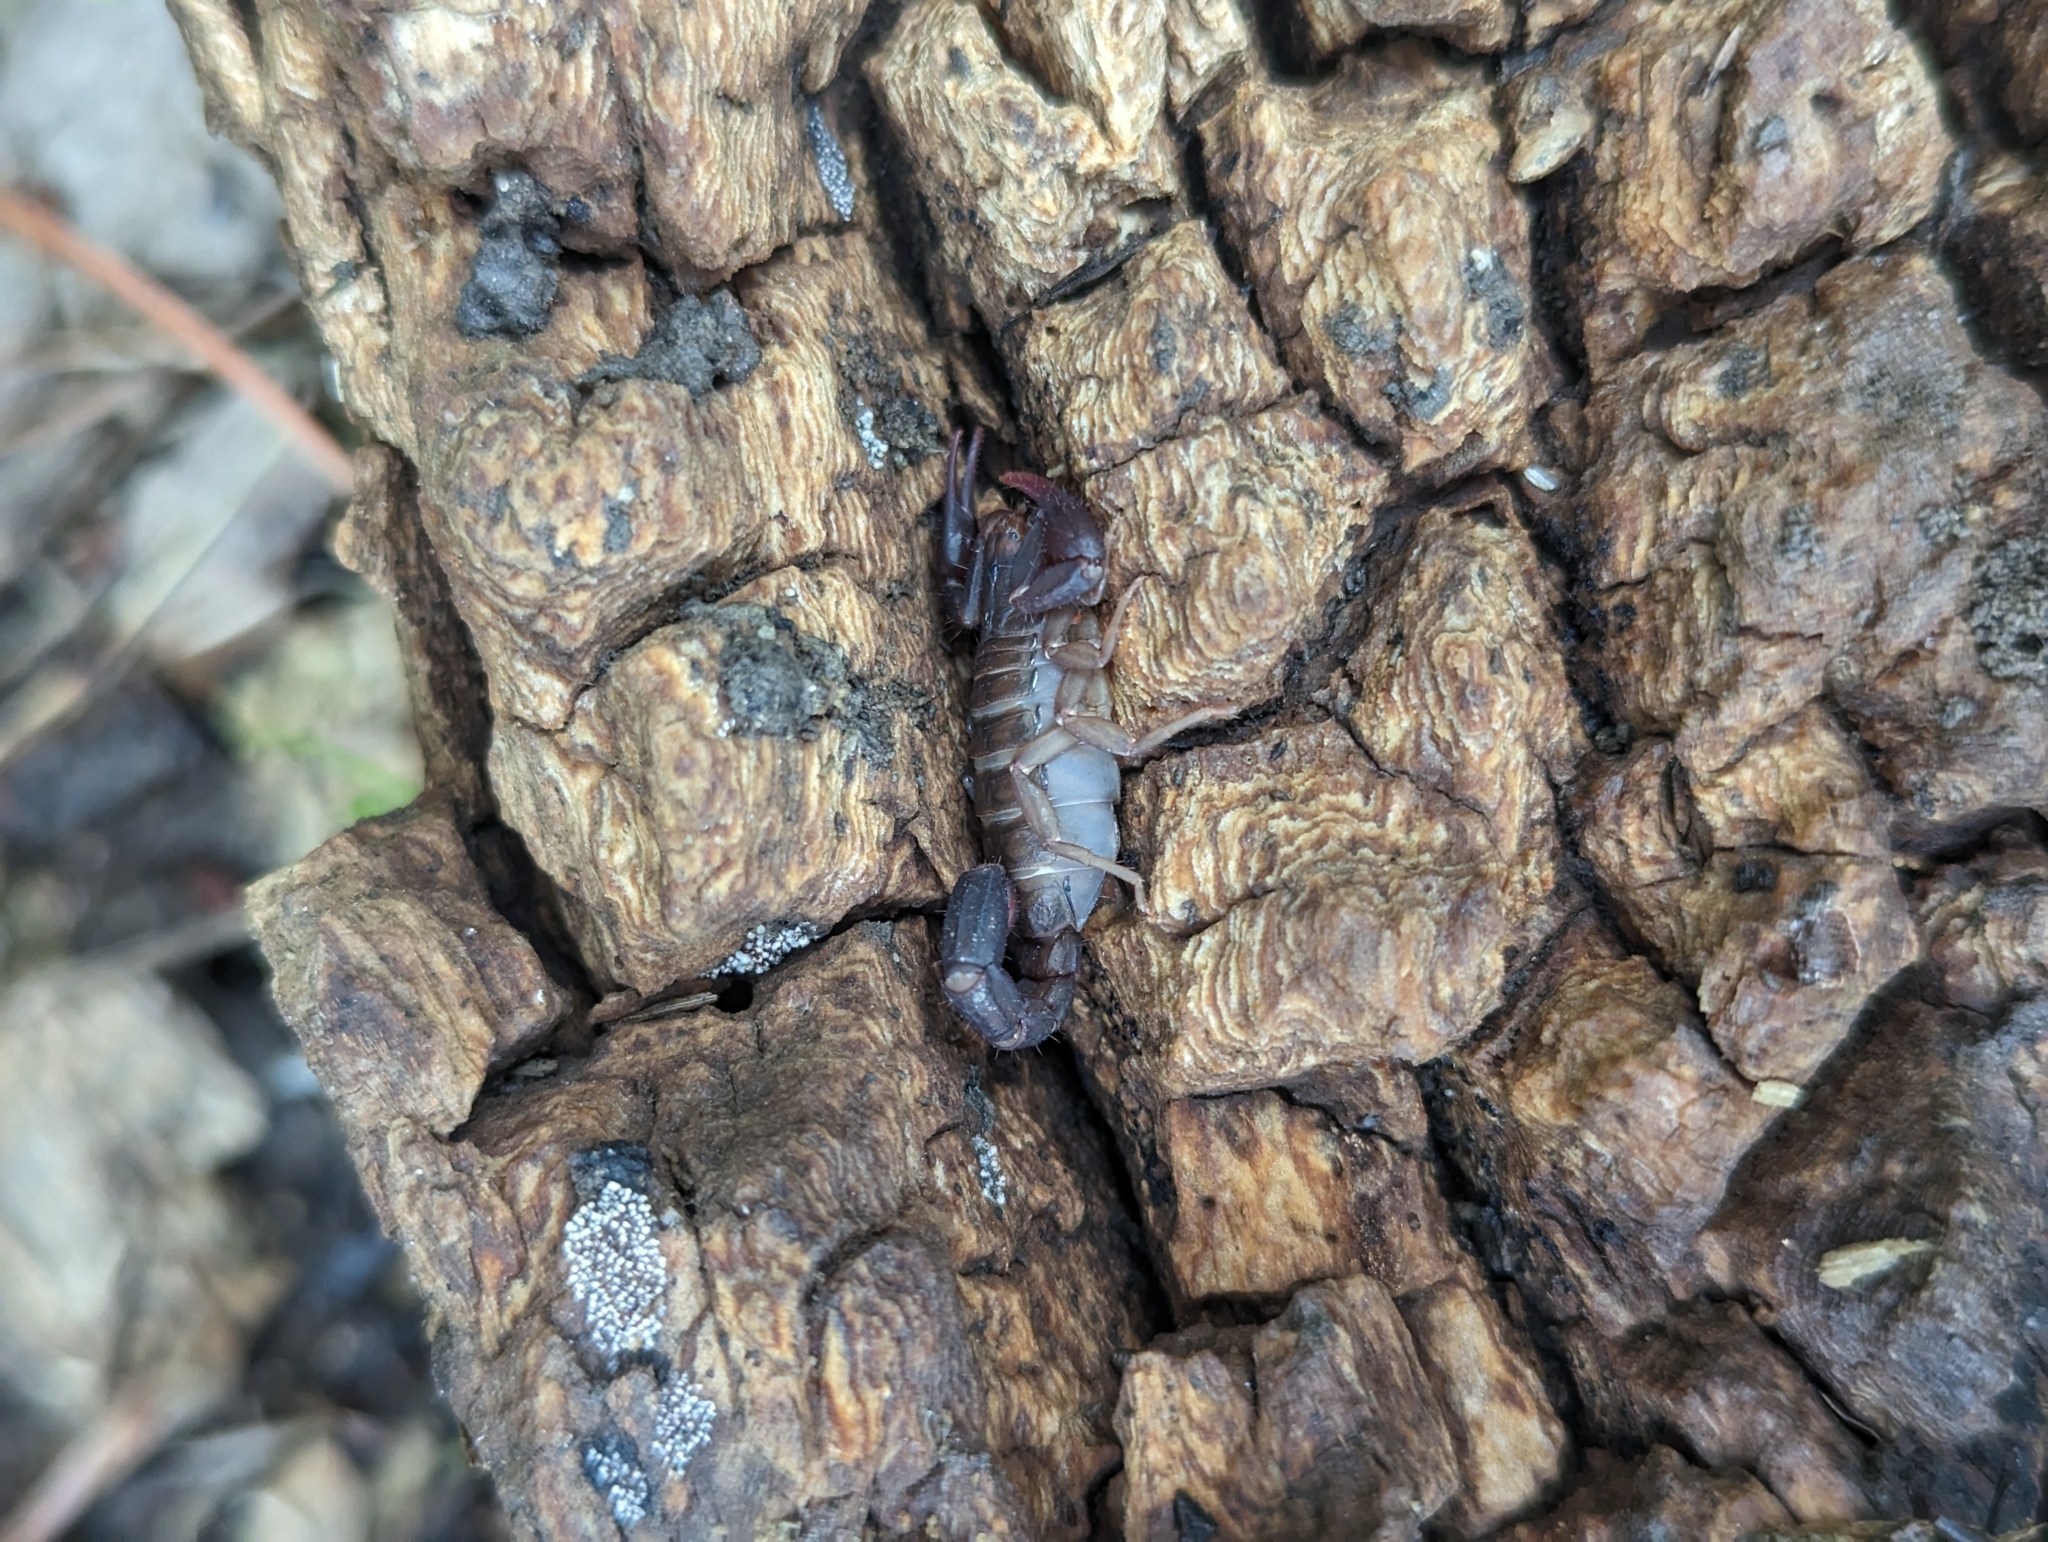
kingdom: Animalia
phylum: Arthropoda
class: Arachnida
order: Scorpiones
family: Vaejovidae
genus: Vaejovis
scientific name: Vaejovis carolinianus
